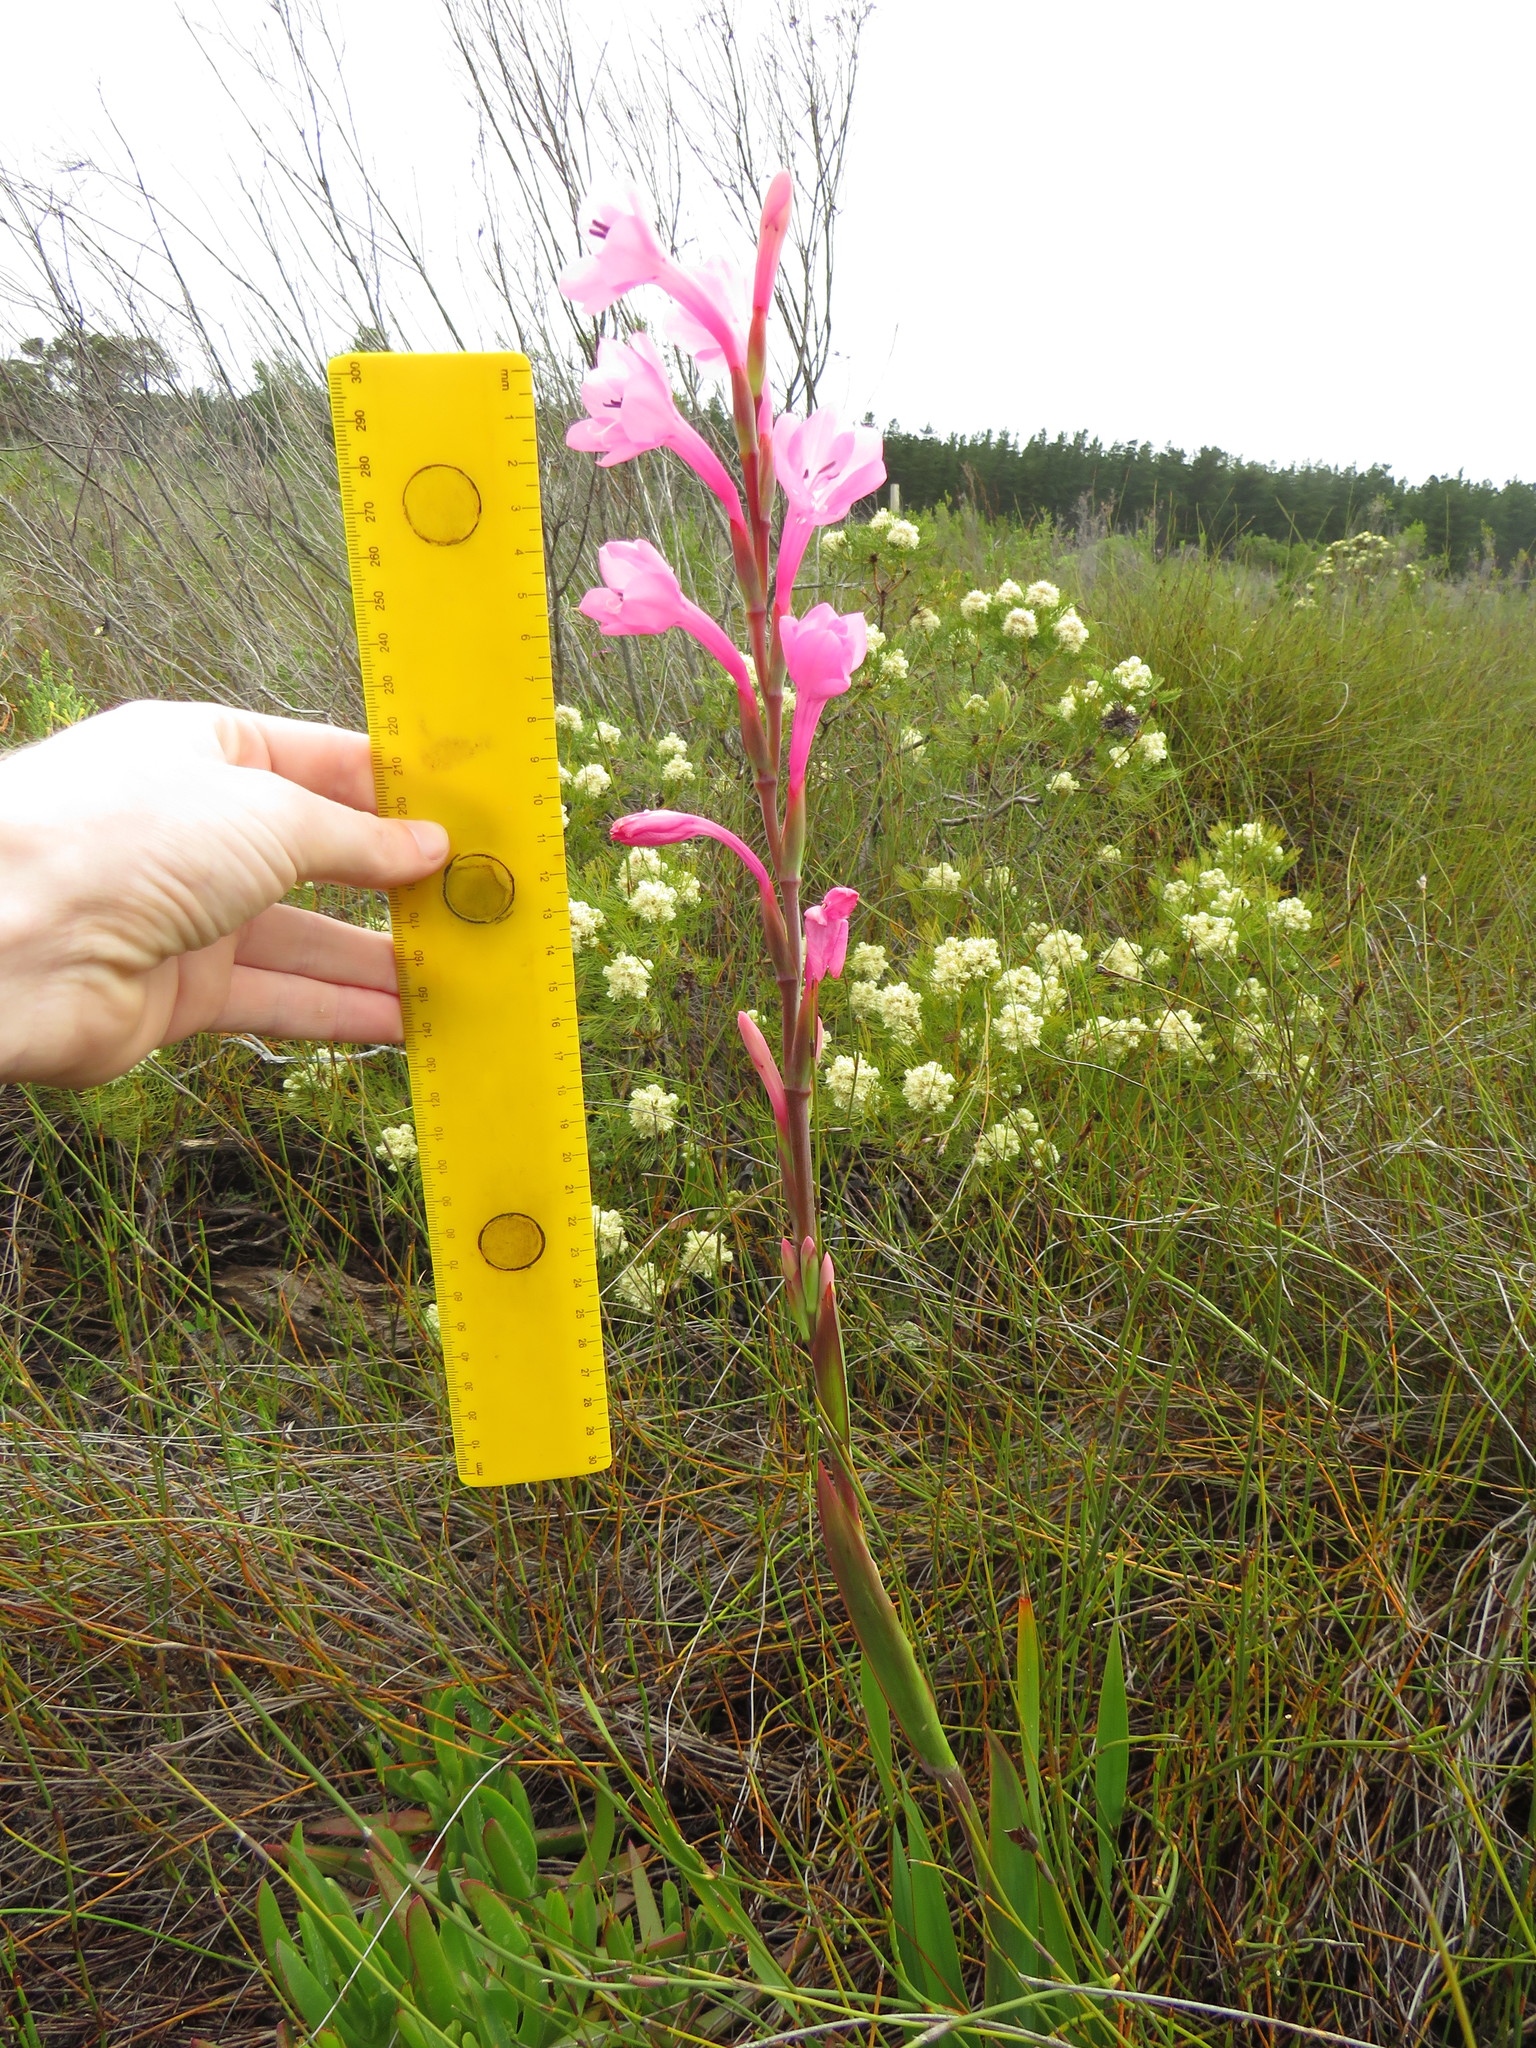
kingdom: Plantae
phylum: Tracheophyta
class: Liliopsida
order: Asparagales
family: Iridaceae
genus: Watsonia
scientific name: Watsonia coccinea
